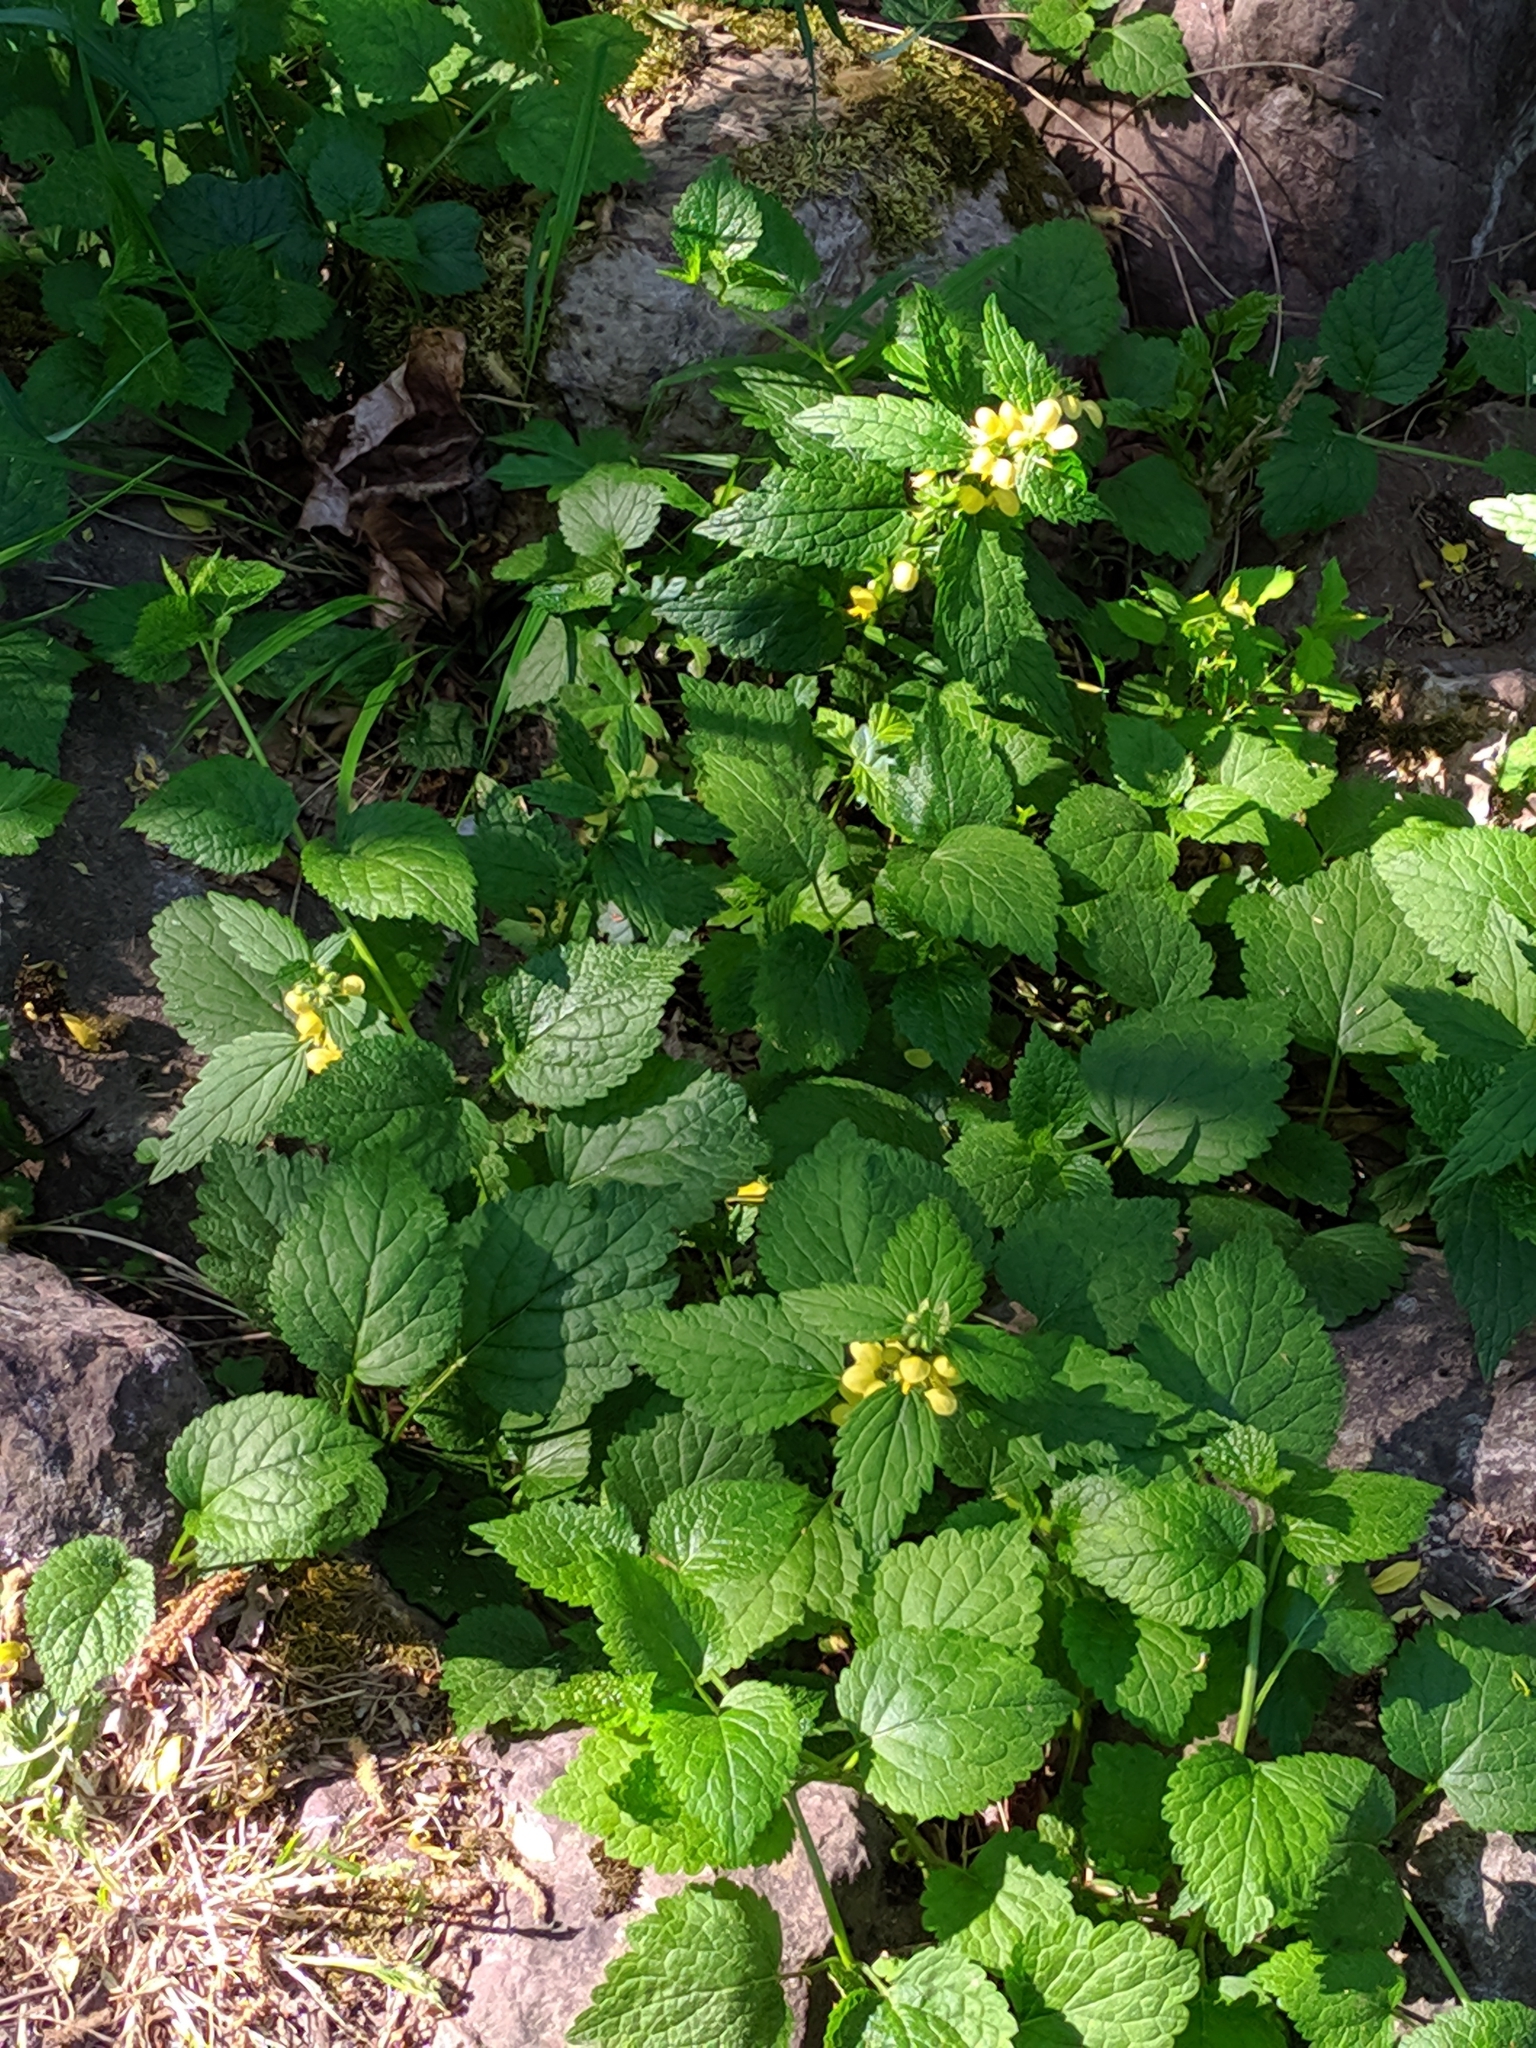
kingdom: Plantae
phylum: Tracheophyta
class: Magnoliopsida
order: Lamiales
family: Lamiaceae
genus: Lamium
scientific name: Lamium galeobdolon
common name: Yellow archangel
